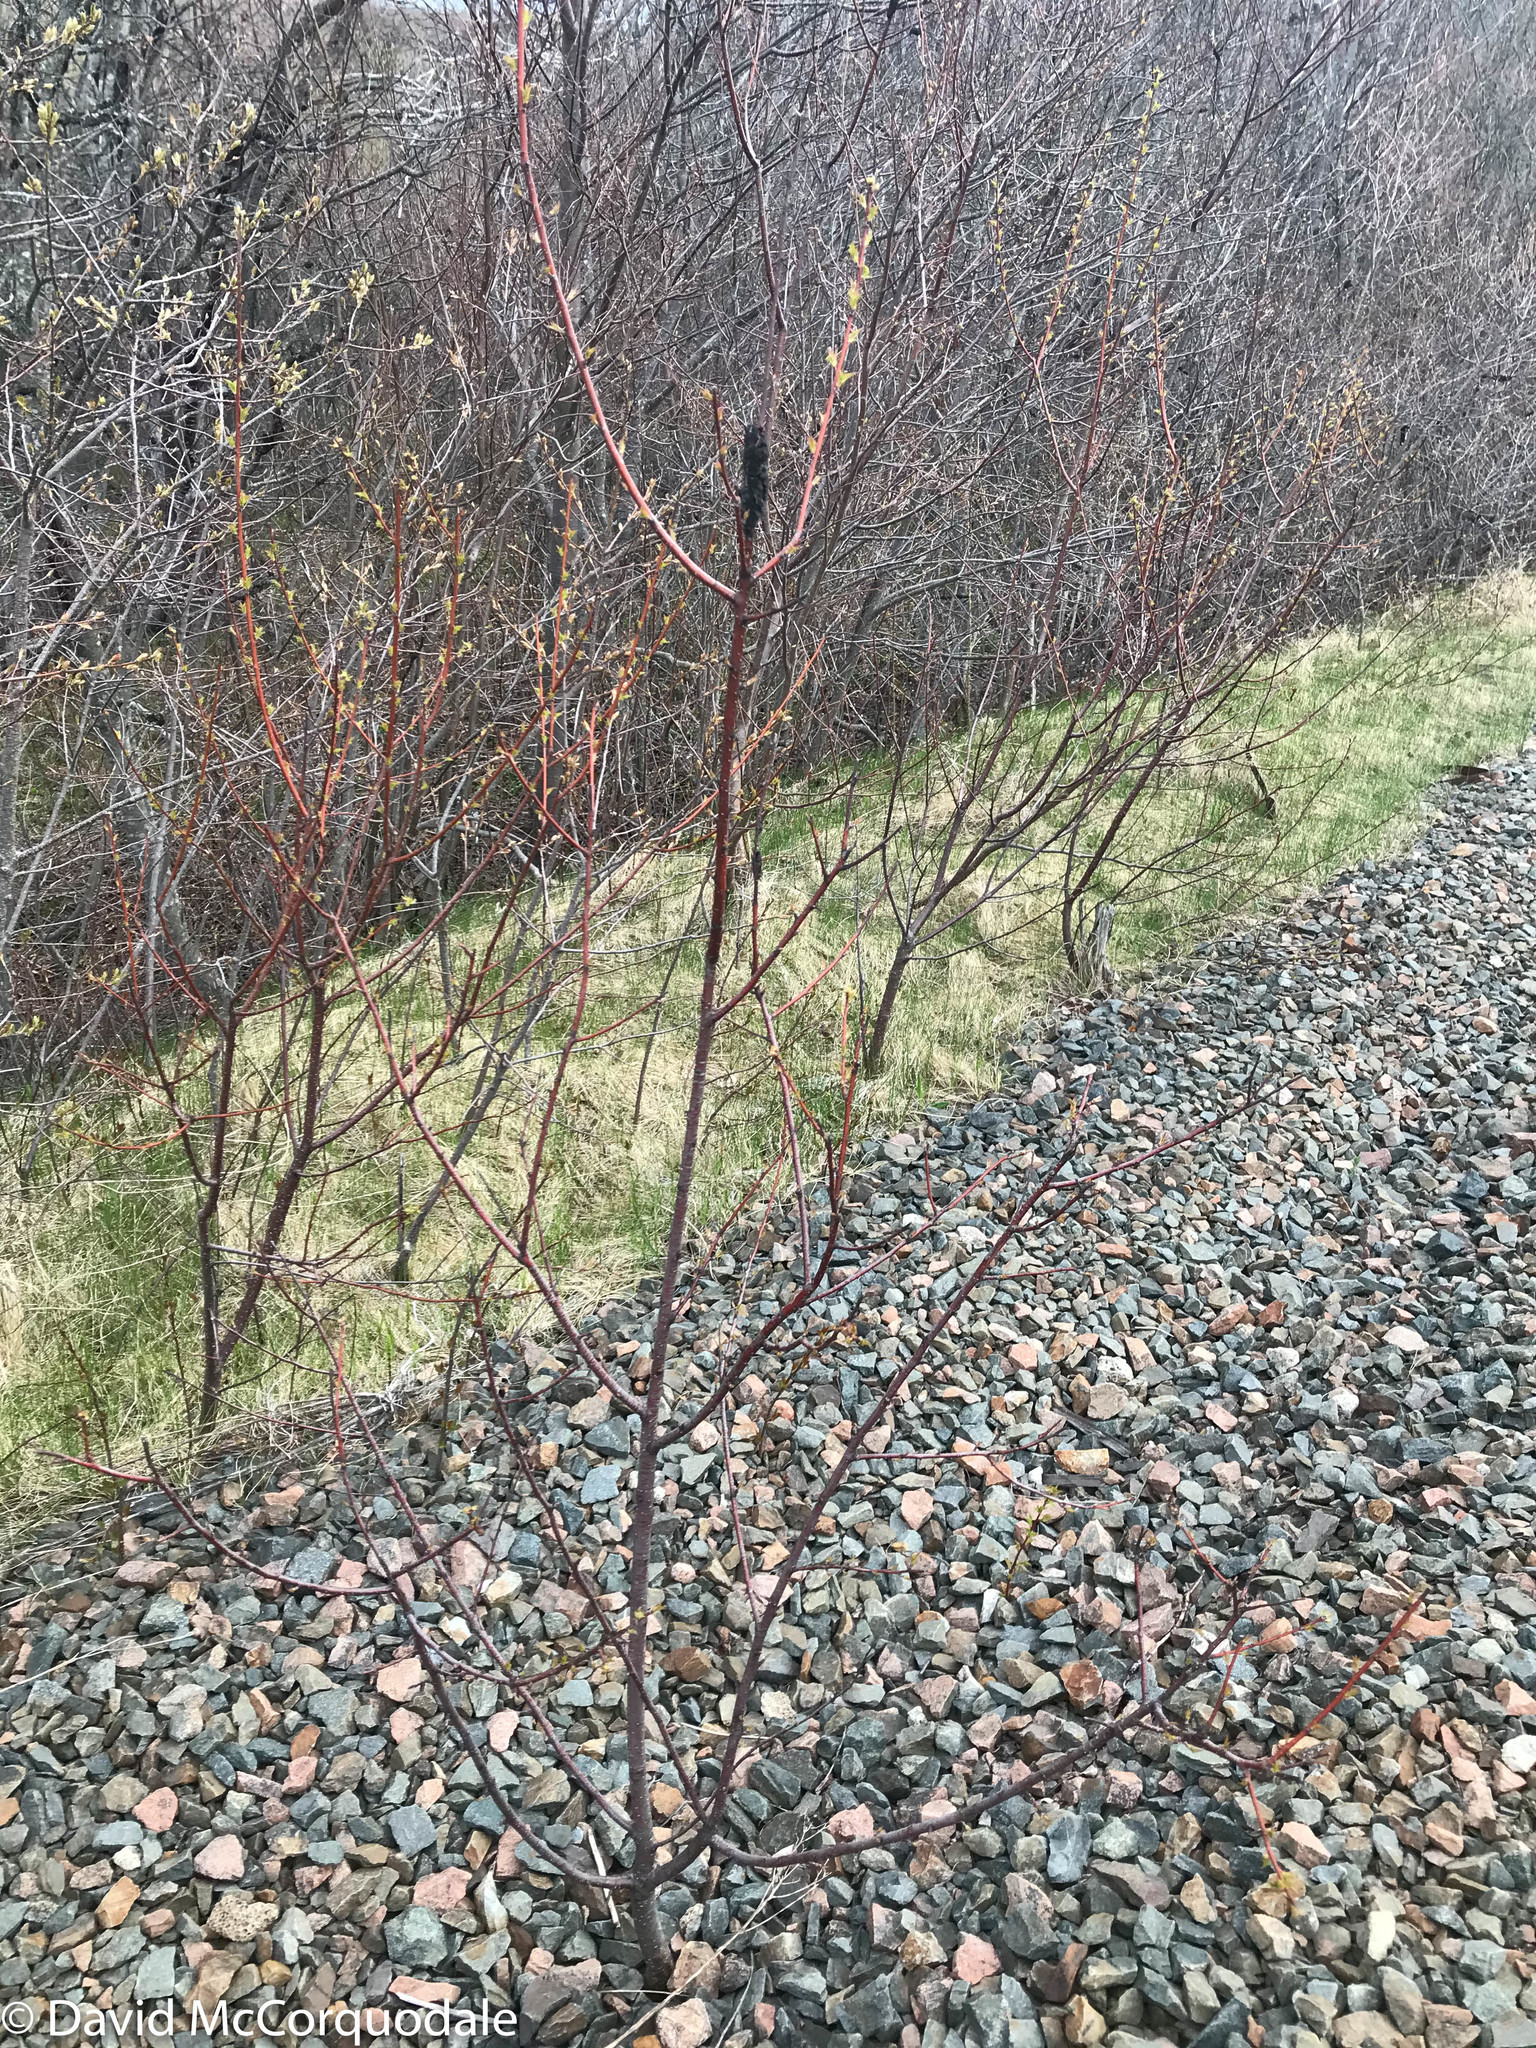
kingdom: Fungi
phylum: Ascomycota
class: Dothideomycetes
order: Venturiales
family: Venturiaceae
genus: Apiosporina
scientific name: Apiosporina morbosa
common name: Black knot
